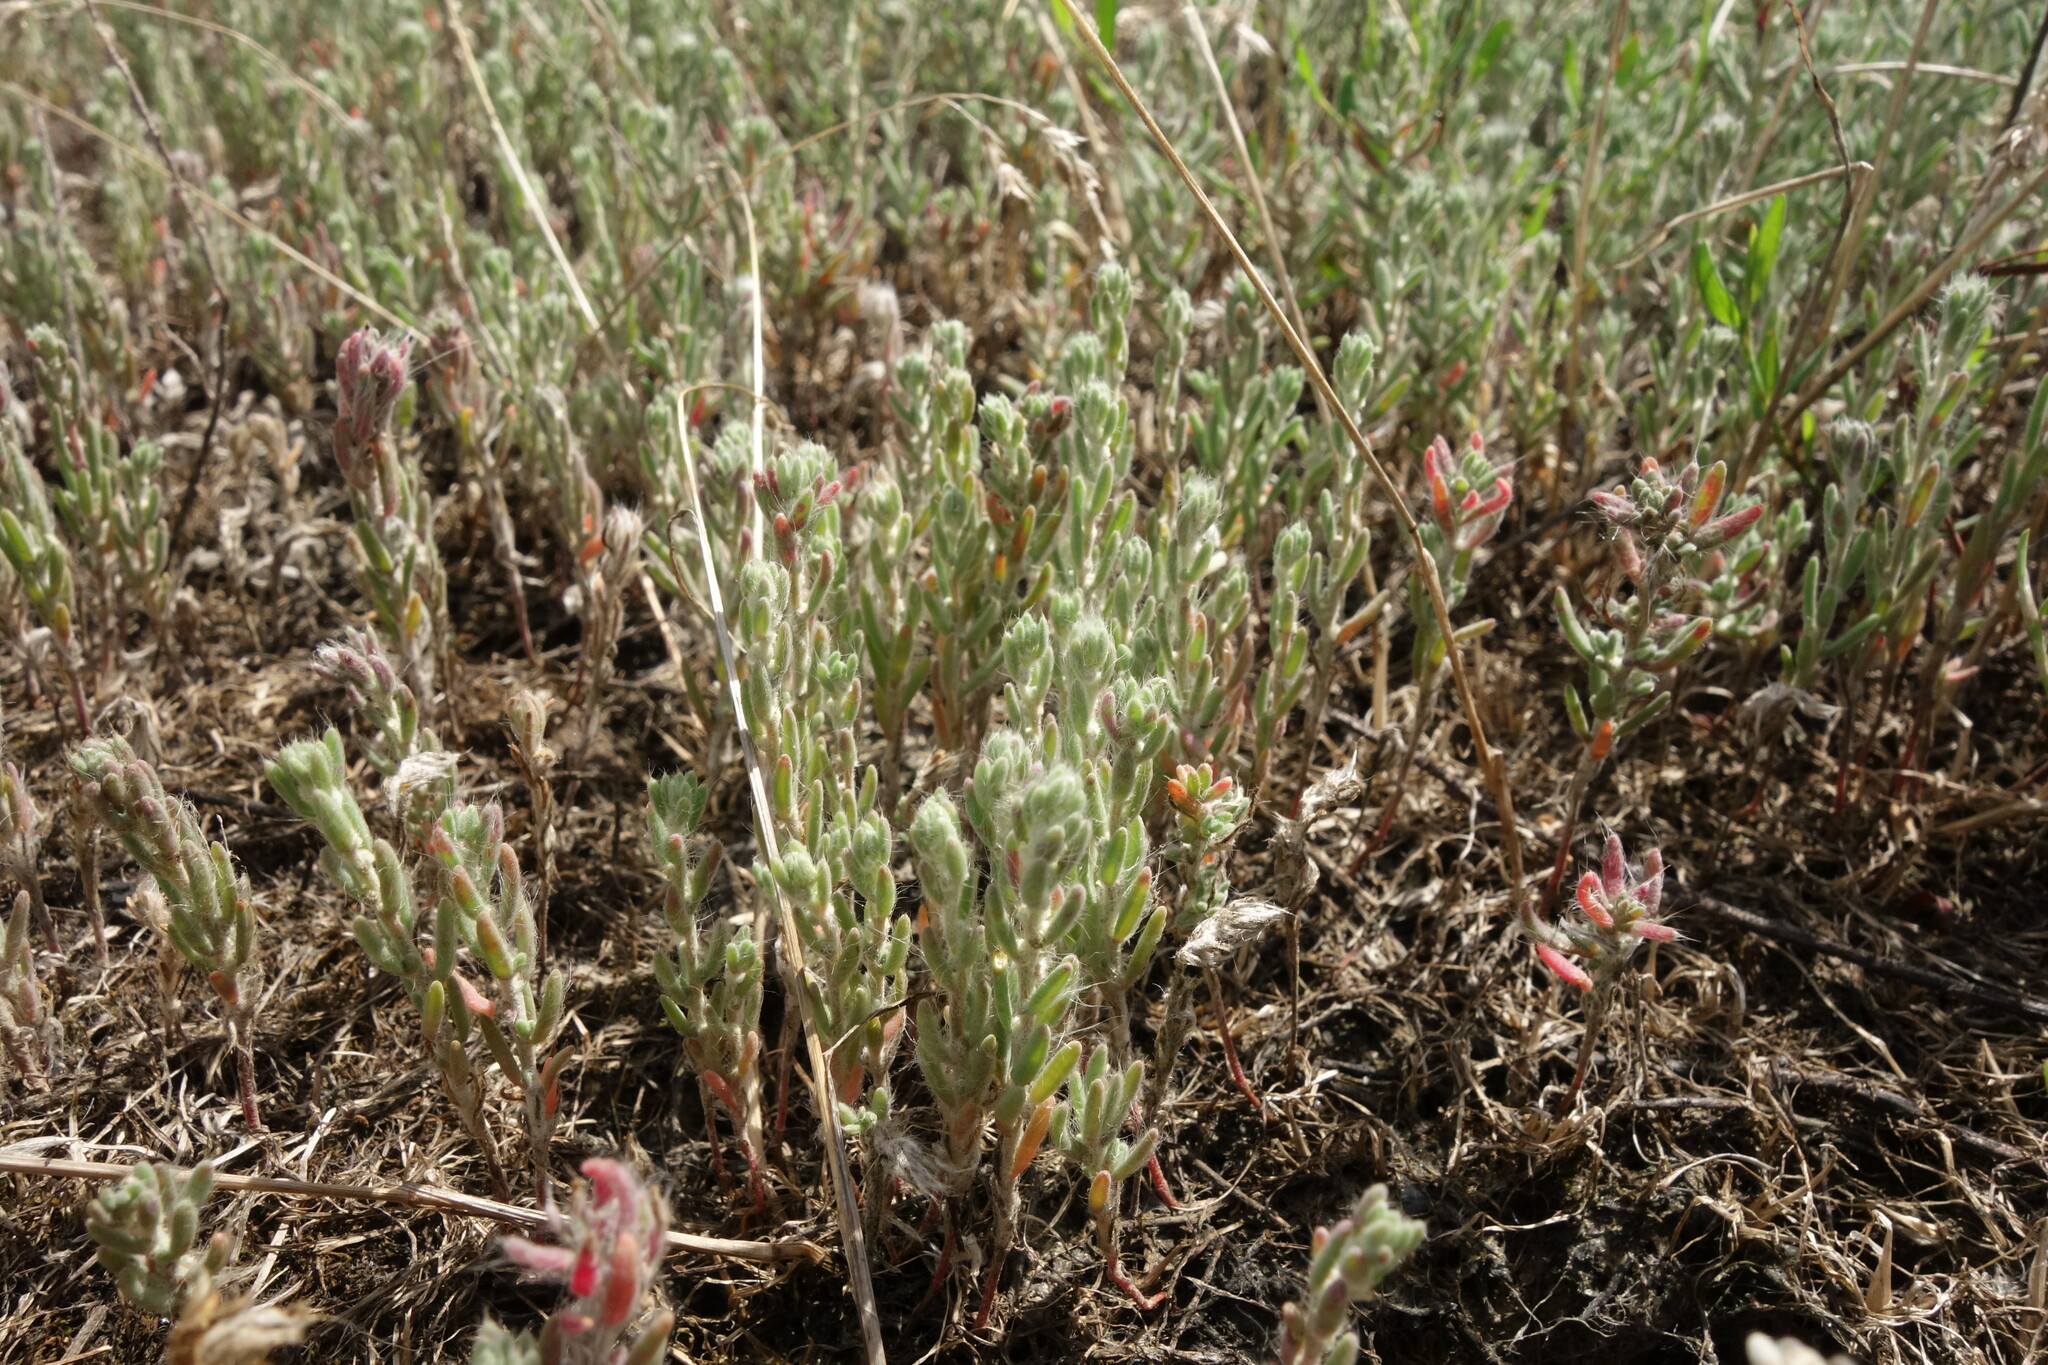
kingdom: Plantae
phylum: Tracheophyta
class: Magnoliopsida
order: Caryophyllales
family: Amaranthaceae
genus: Sedobassia
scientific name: Sedobassia sedoides
